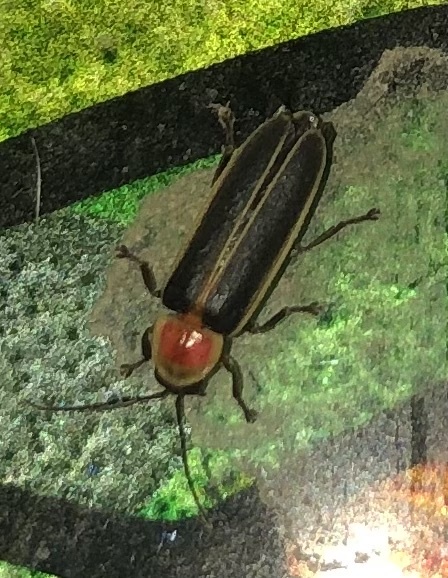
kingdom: Animalia
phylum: Arthropoda
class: Insecta
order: Coleoptera
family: Lampyridae
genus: Photinus
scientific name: Photinus pyralis
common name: Big dipper firefly
